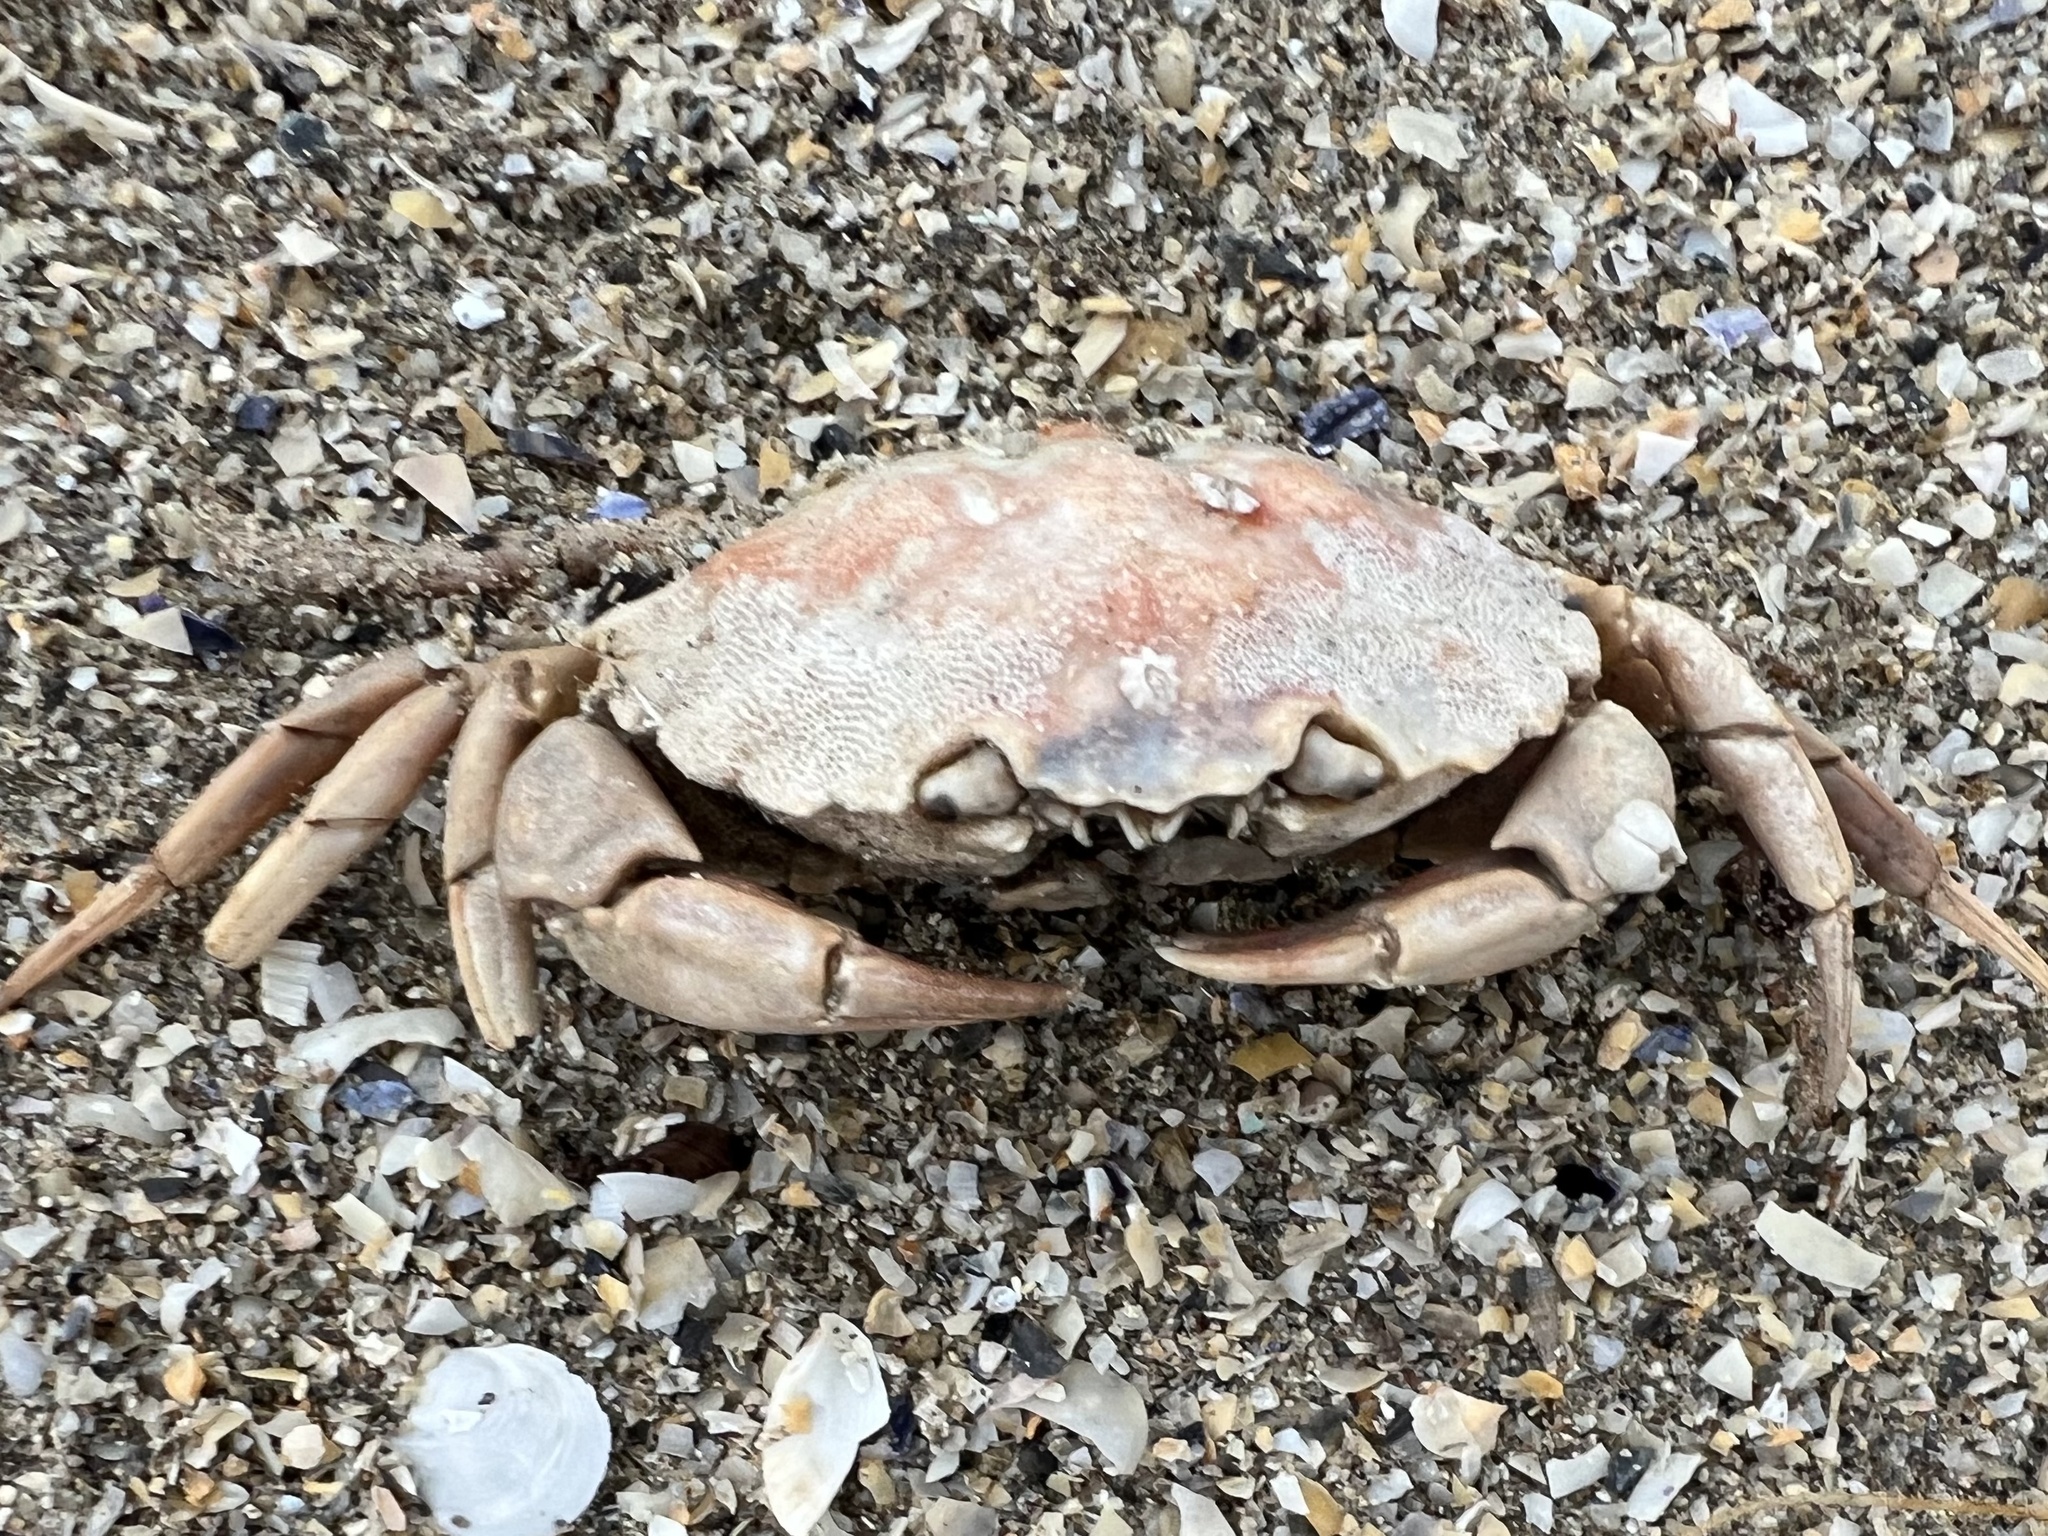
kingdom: Animalia
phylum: Arthropoda
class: Malacostraca
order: Decapoda
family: Carcinidae
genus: Carcinus
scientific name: Carcinus maenas
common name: European green crab
